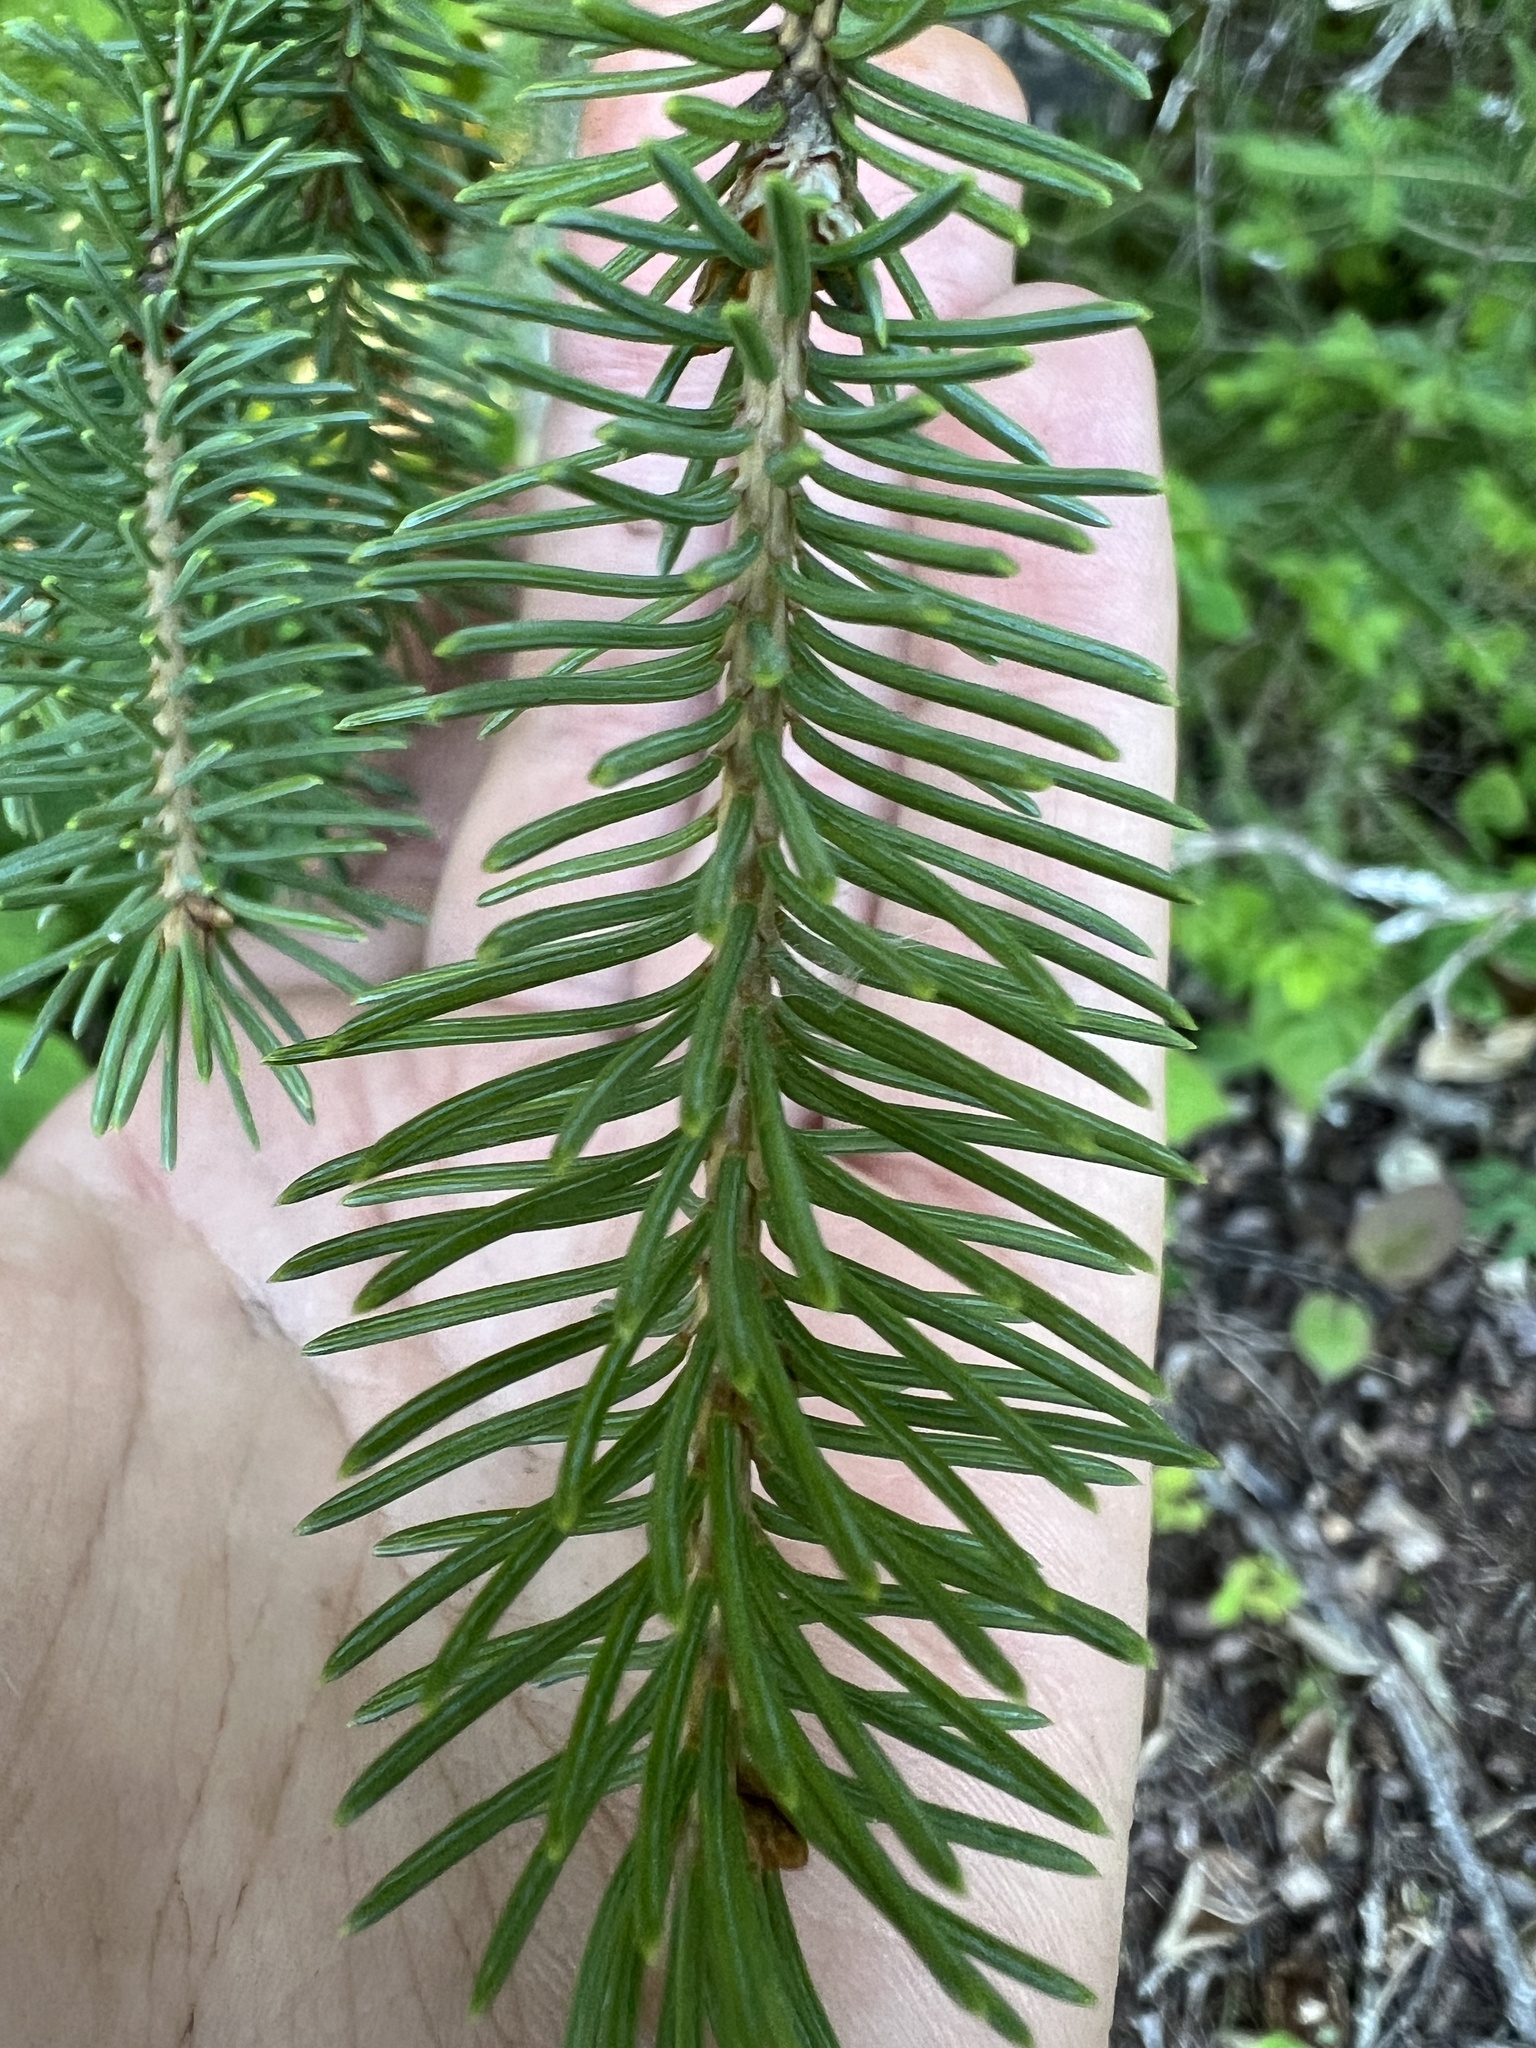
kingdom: Plantae
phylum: Tracheophyta
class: Pinopsida
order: Pinales
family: Pinaceae
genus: Picea
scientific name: Picea glauca
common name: White spruce
